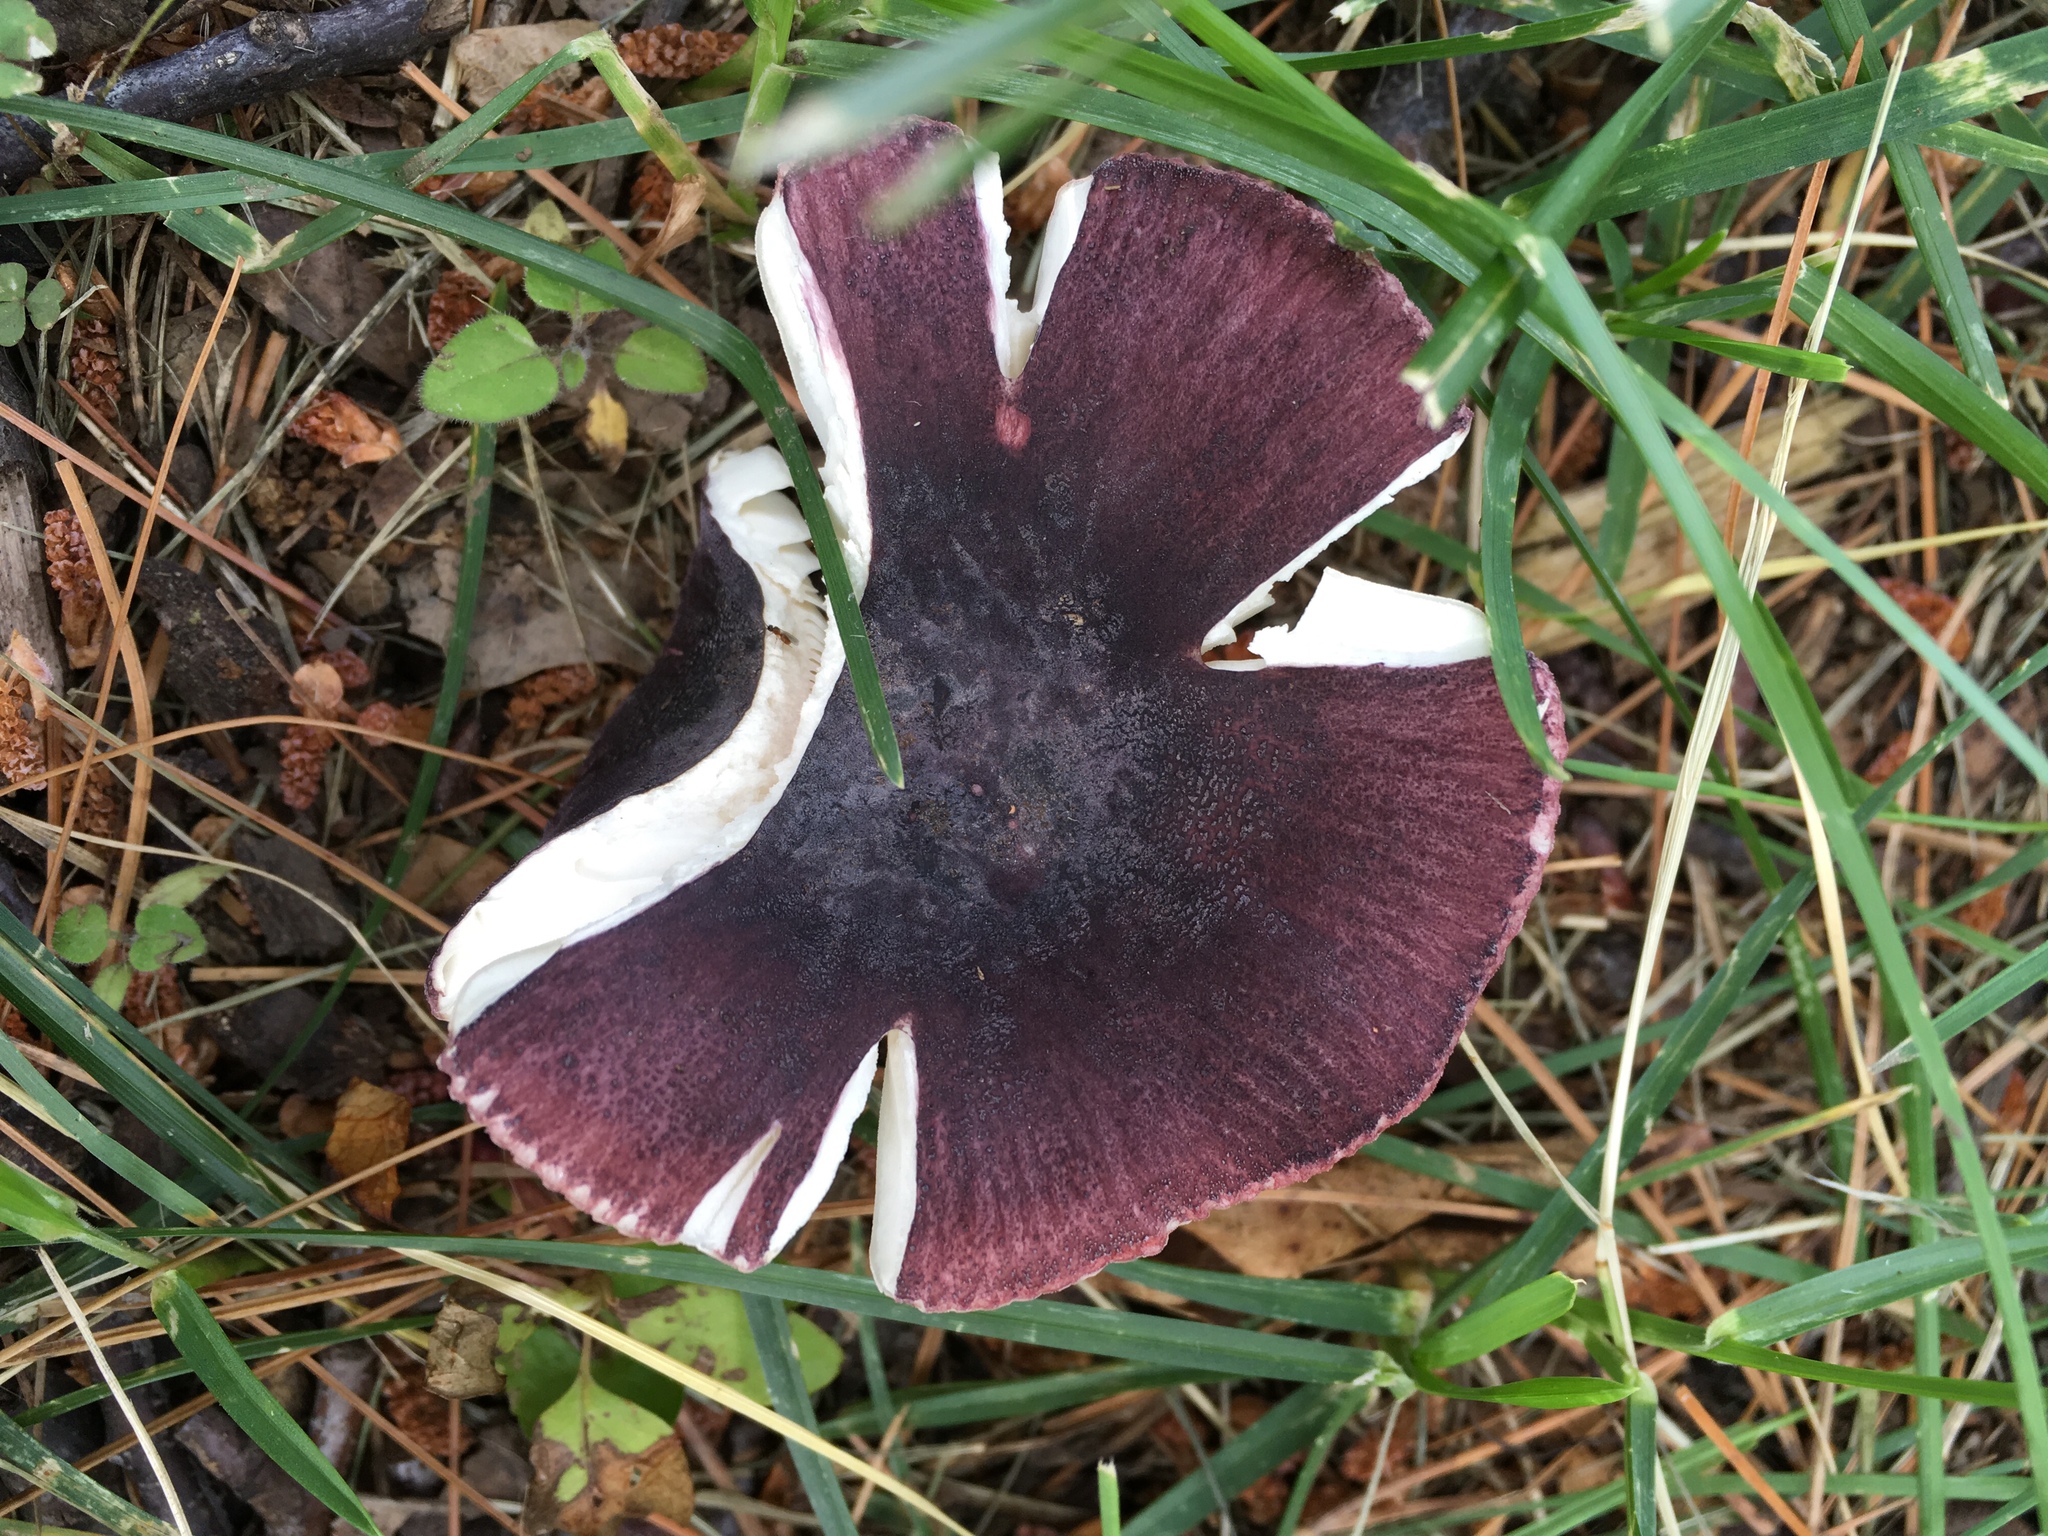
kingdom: Fungi
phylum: Basidiomycota
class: Agaricomycetes
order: Russulales
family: Russulaceae
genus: Russula
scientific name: Russula mariae
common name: Purple-bloom russula
